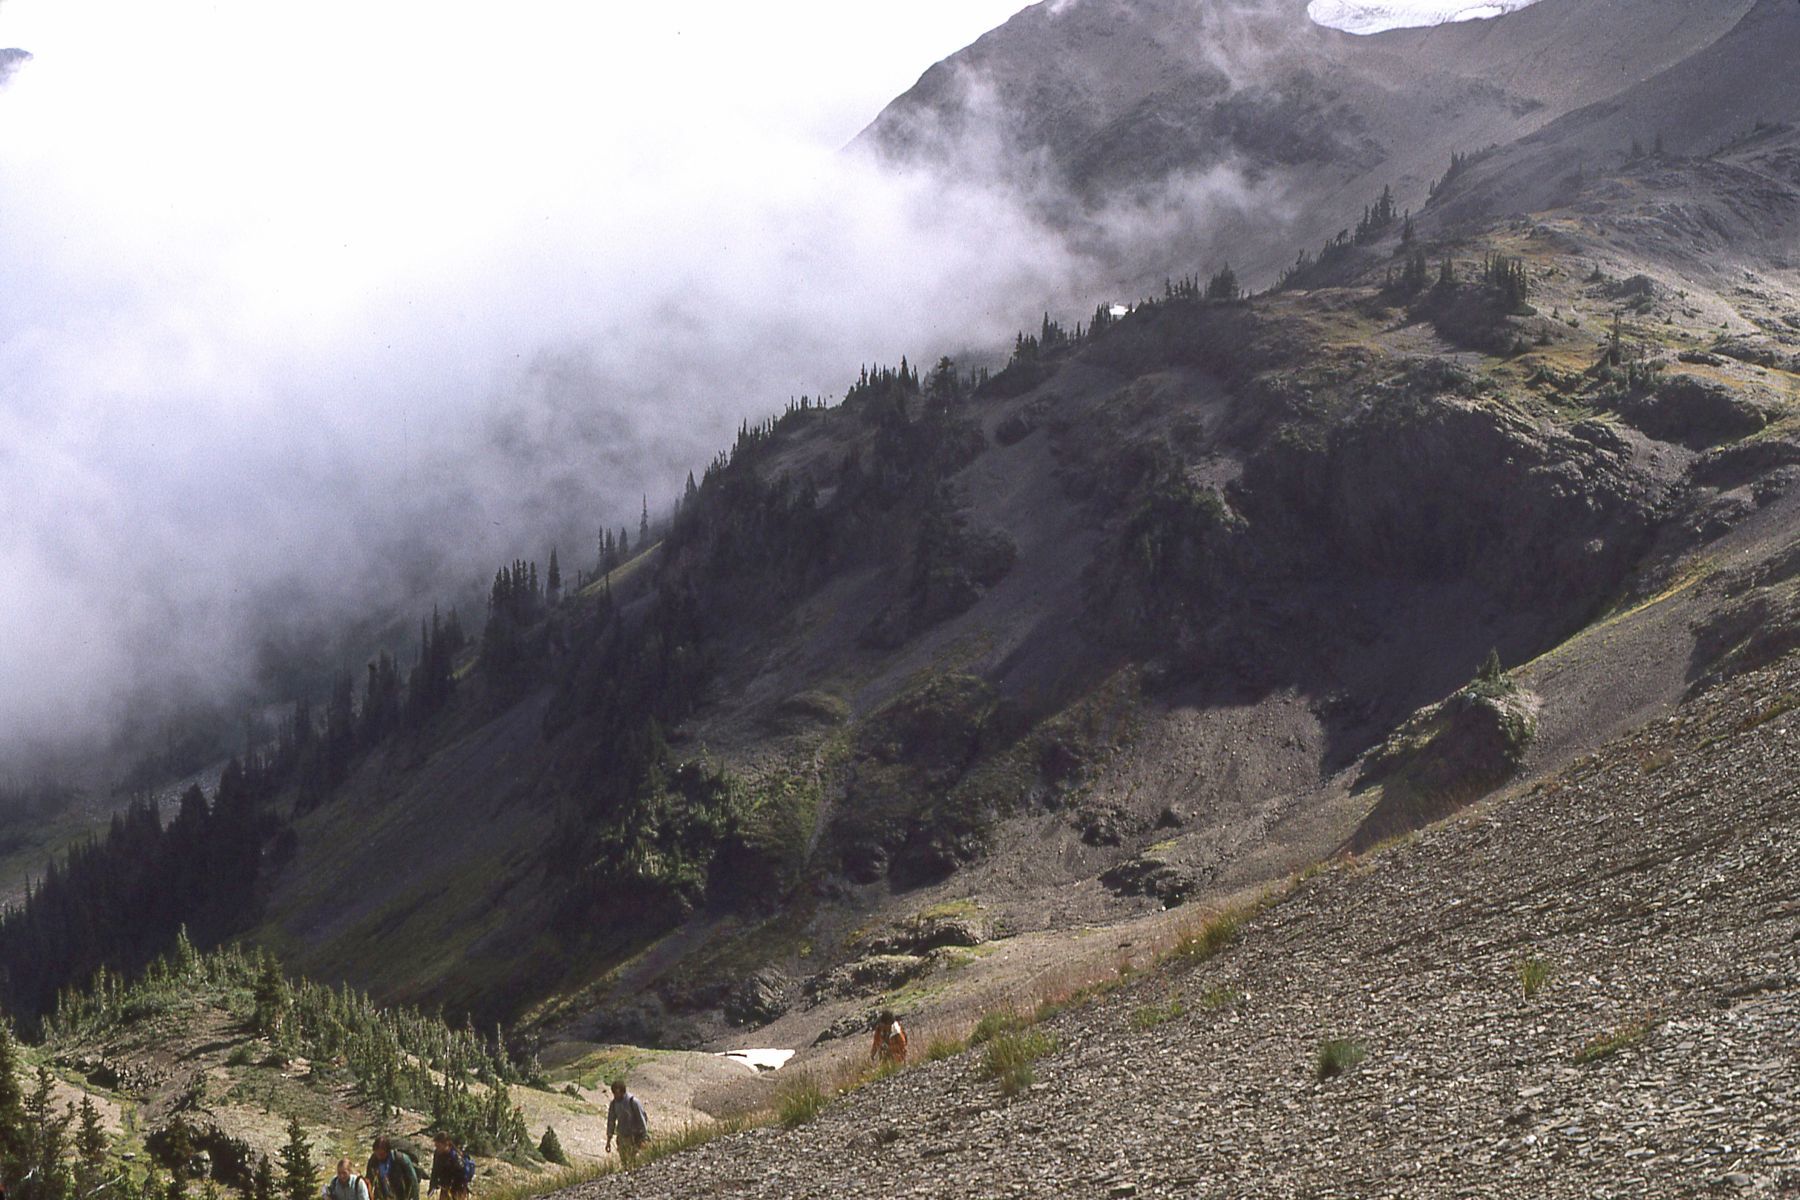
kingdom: Plantae
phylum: Tracheophyta
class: Polypodiopsida
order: Polypodiales
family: Dryopteridaceae
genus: Polystichum
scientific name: Polystichum kruckebergii
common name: Kruckeberg's holly fern
